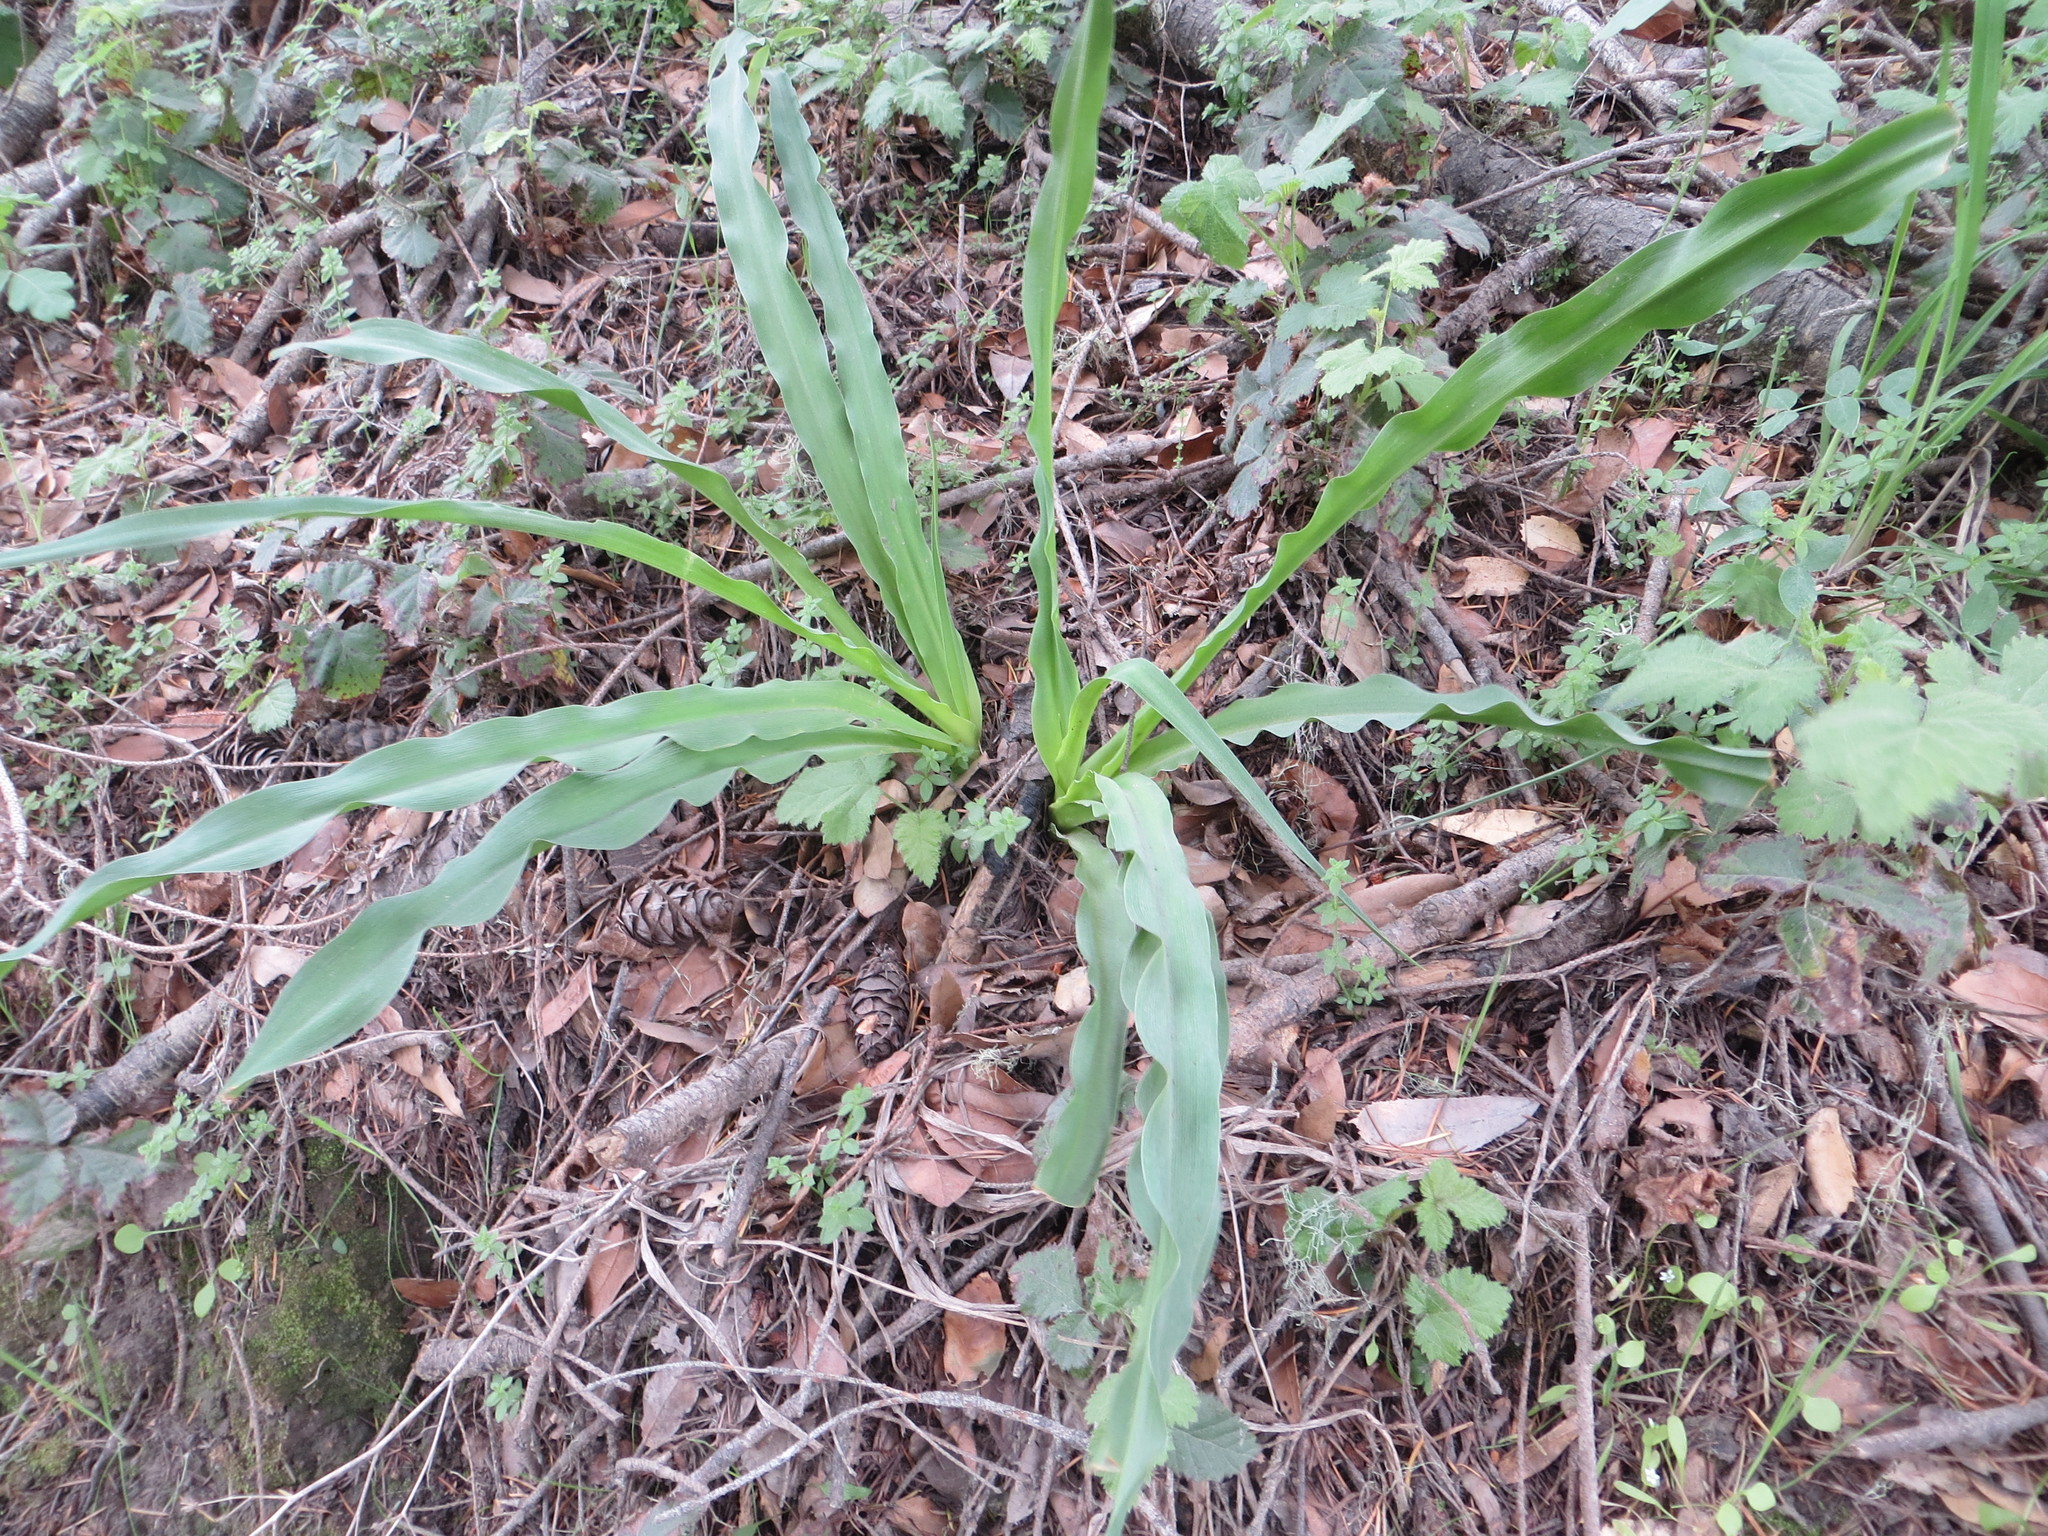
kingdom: Plantae
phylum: Tracheophyta
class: Liliopsida
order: Asparagales
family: Asparagaceae
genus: Chlorogalum
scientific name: Chlorogalum pomeridianum
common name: Amole
